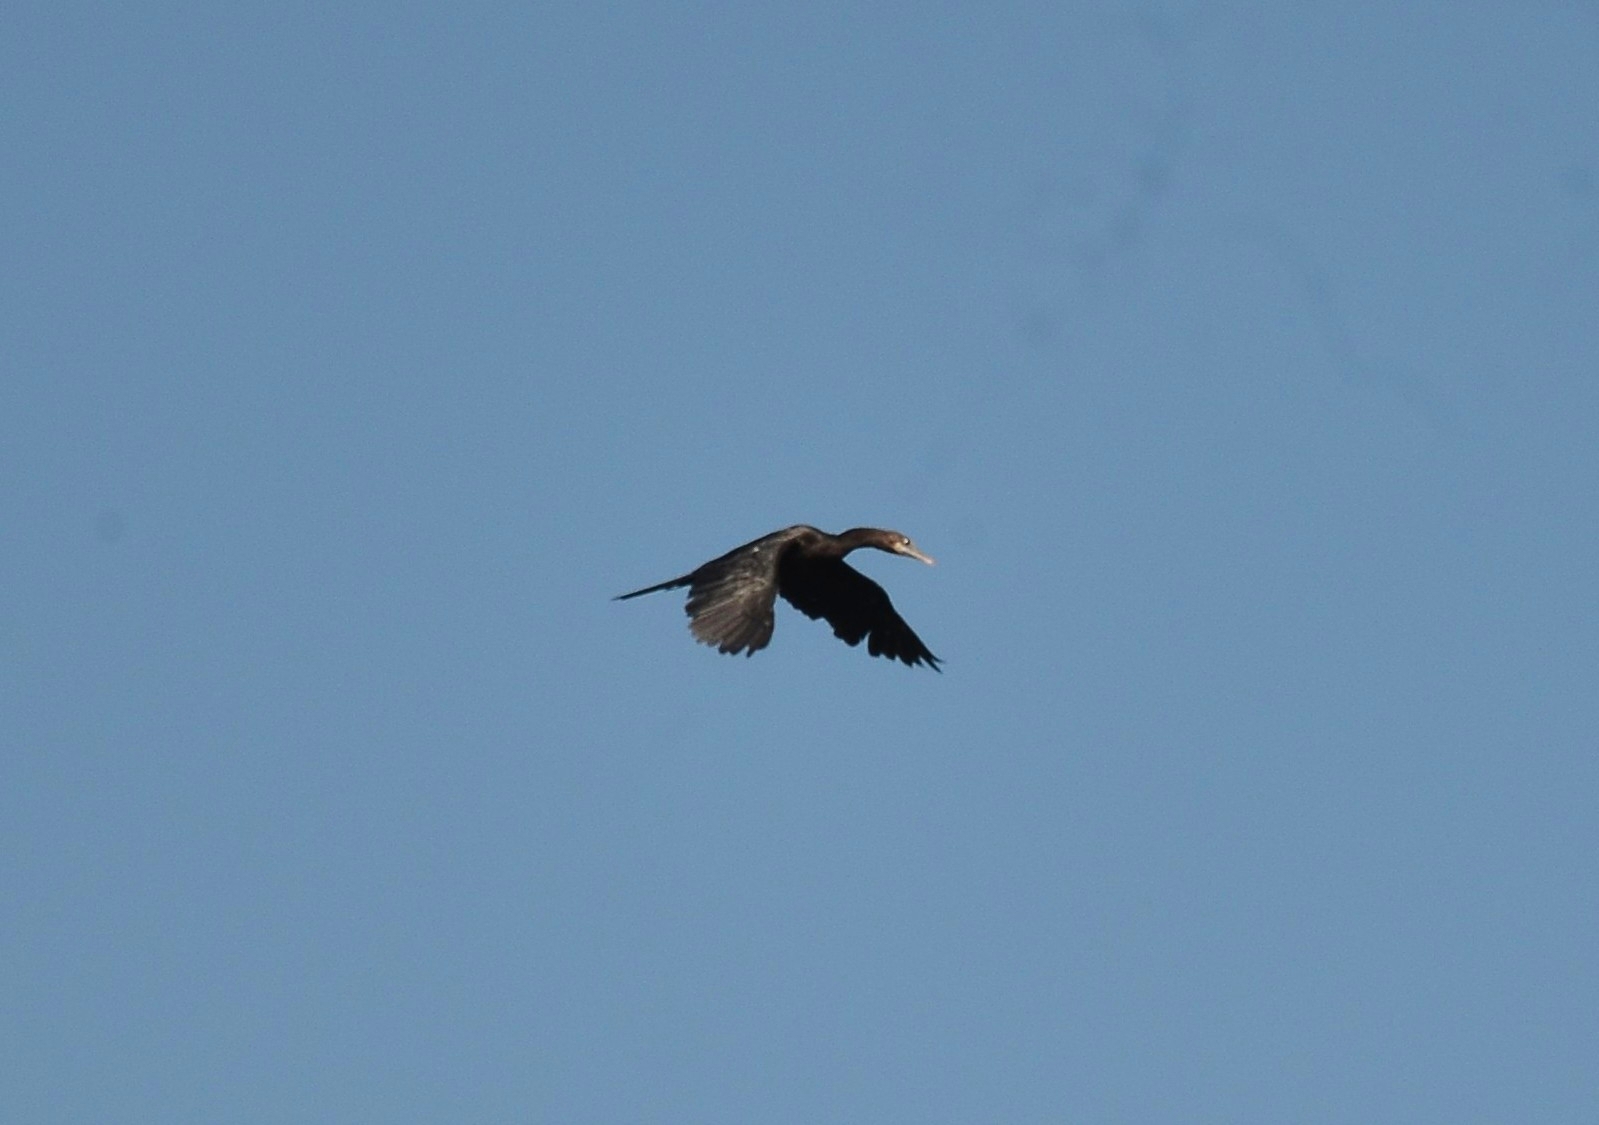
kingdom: Animalia
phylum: Chordata
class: Aves
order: Suliformes
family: Phalacrocoracidae
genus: Microcarbo
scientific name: Microcarbo niger
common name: Little cormorant
